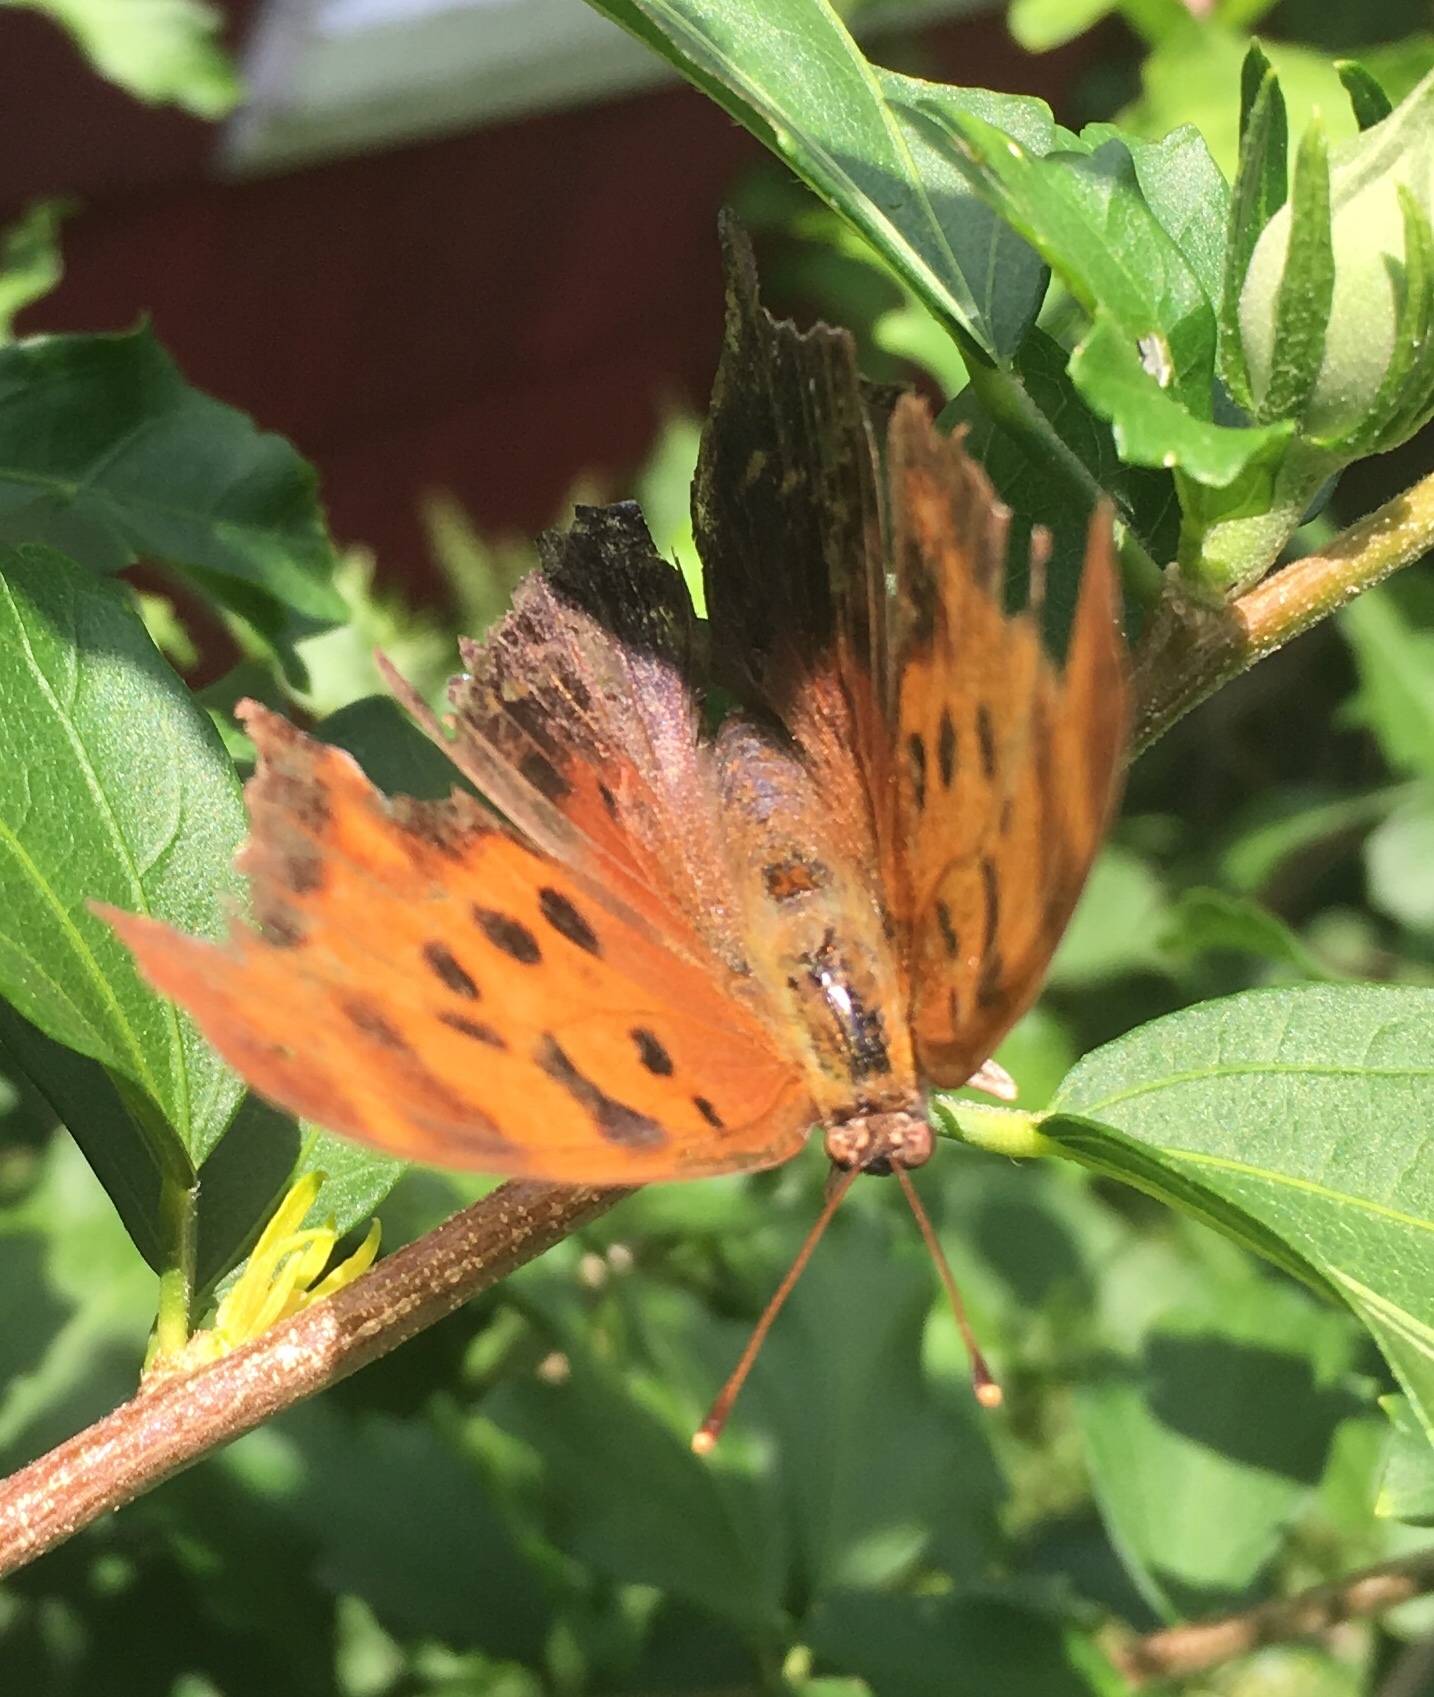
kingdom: Animalia
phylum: Arthropoda
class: Insecta
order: Lepidoptera
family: Nymphalidae
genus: Polygonia
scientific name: Polygonia interrogationis
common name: Question mark
